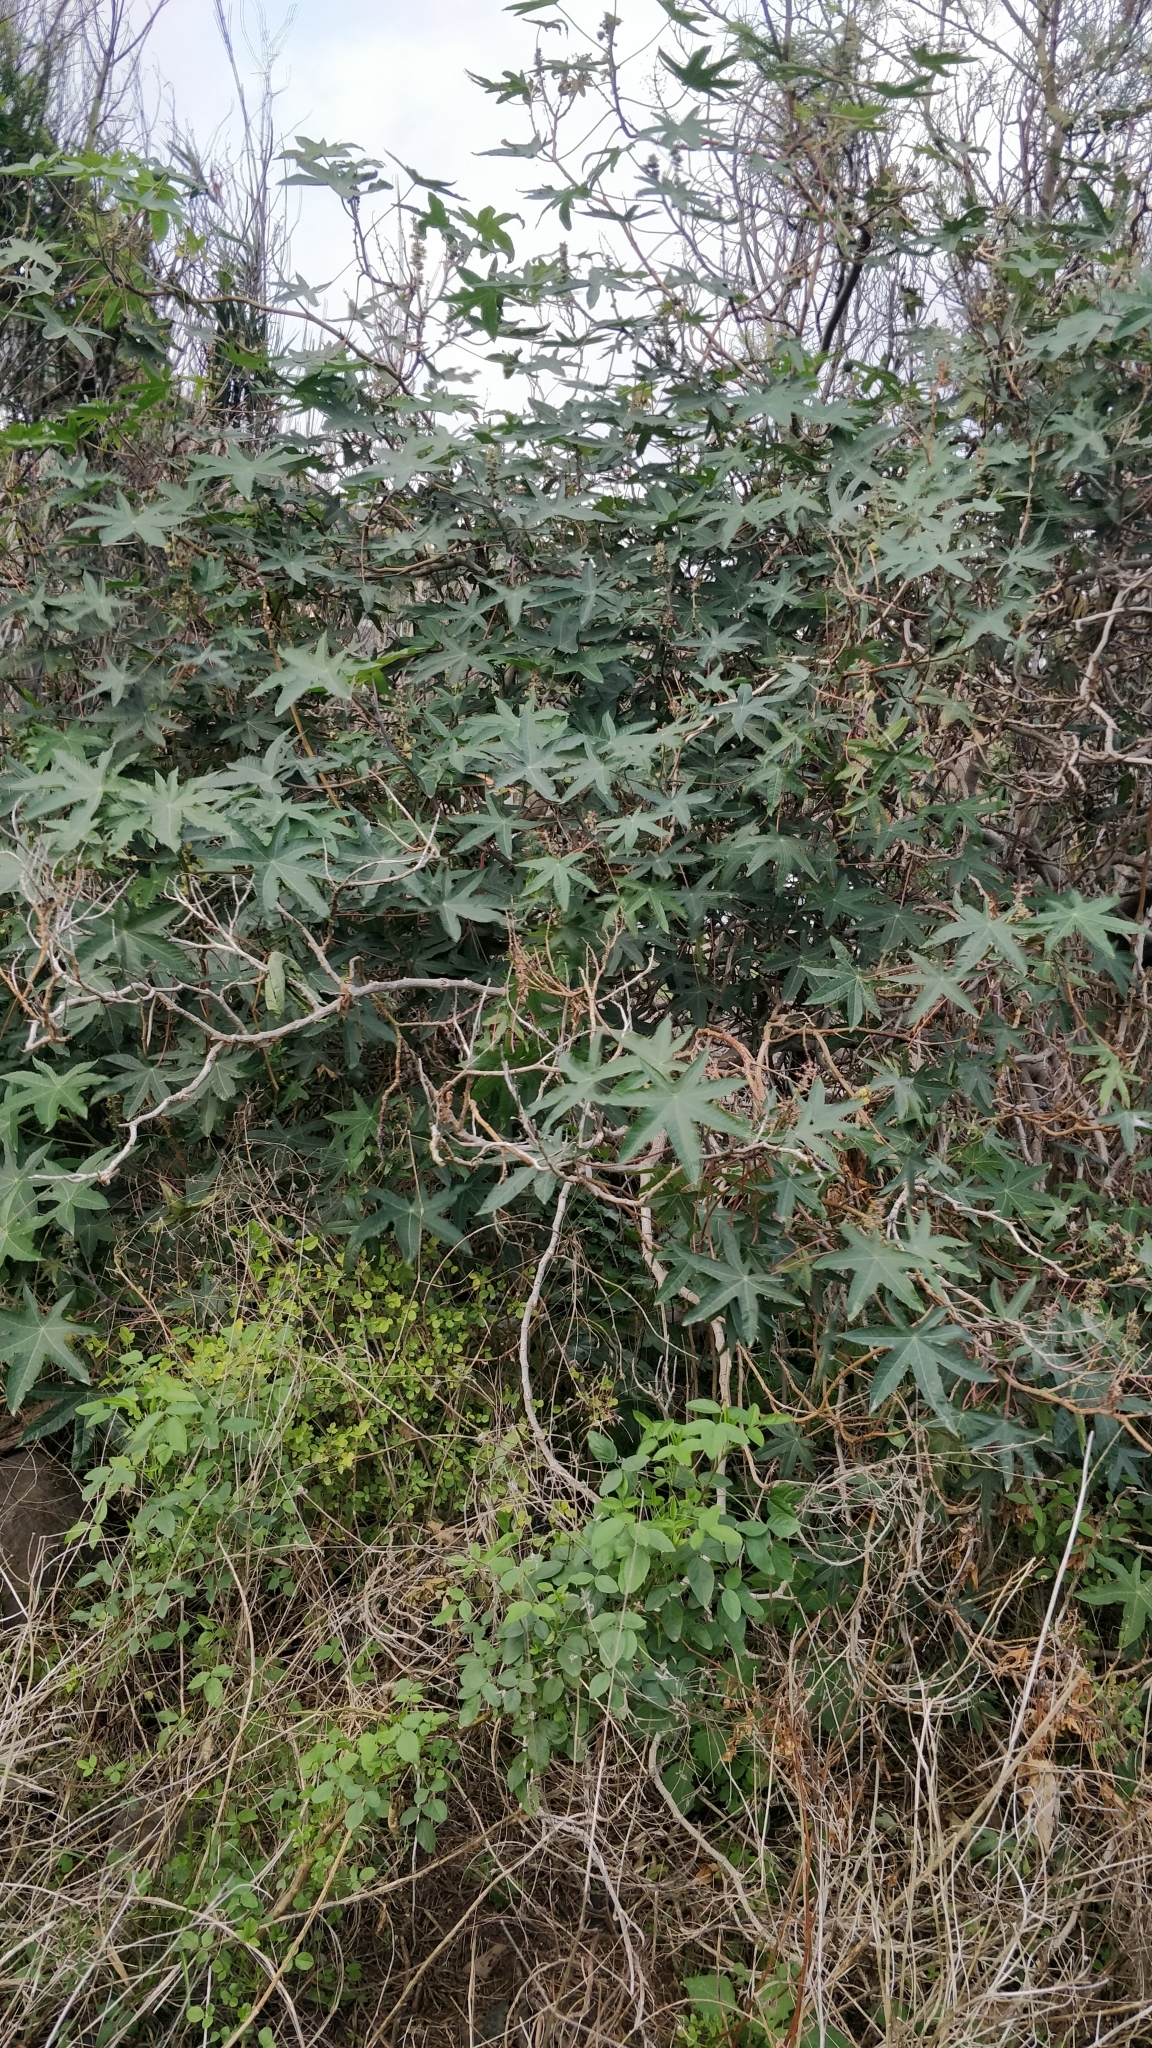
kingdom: Plantae
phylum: Tracheophyta
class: Magnoliopsida
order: Malpighiales
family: Euphorbiaceae
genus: Ricinus
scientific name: Ricinus communis
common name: Castor-oil-plant
